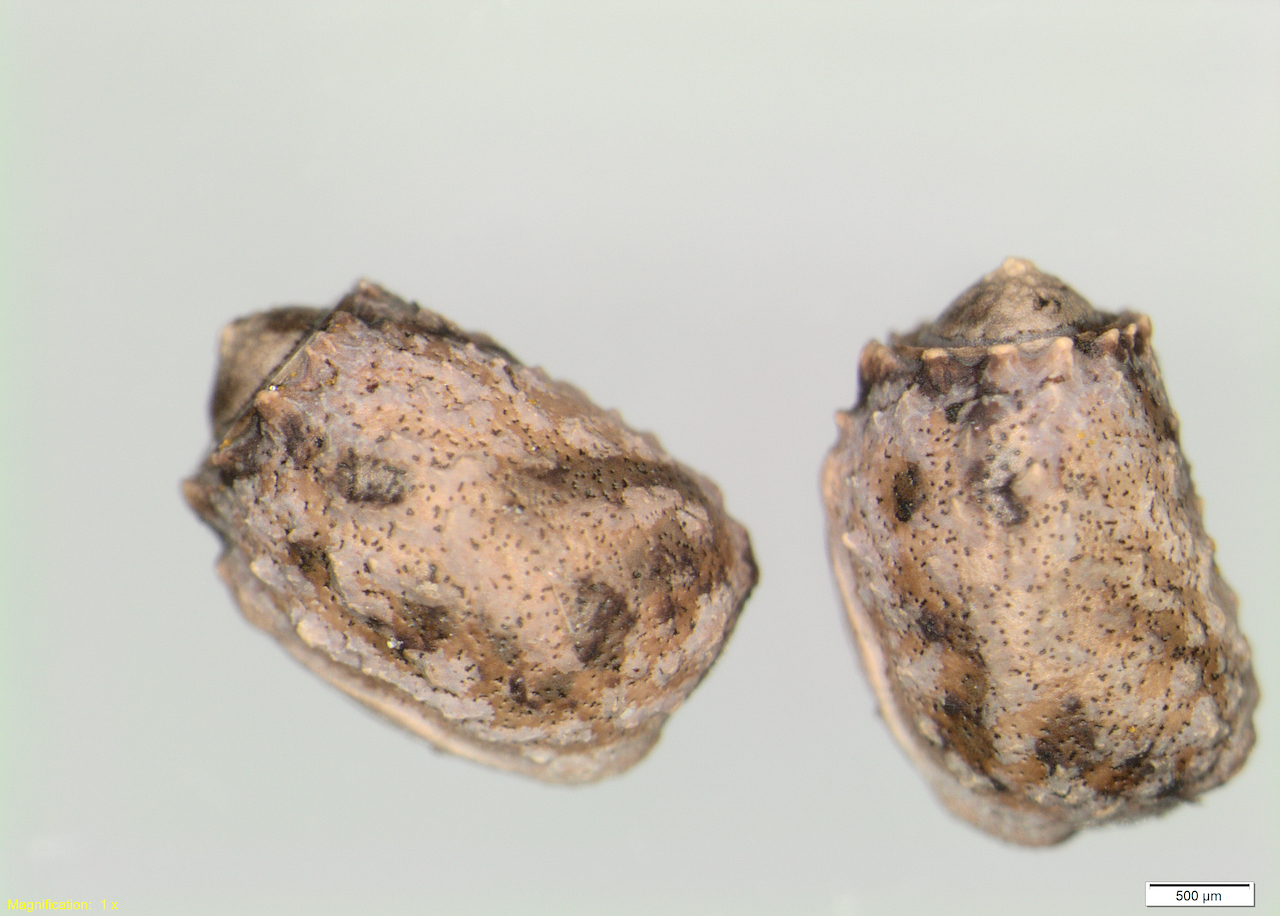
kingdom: Animalia
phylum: Arthropoda
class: Insecta
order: Phasmida
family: Phasmatidae
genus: Clitarchus
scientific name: Clitarchus hookeri
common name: Smooth stick insect
